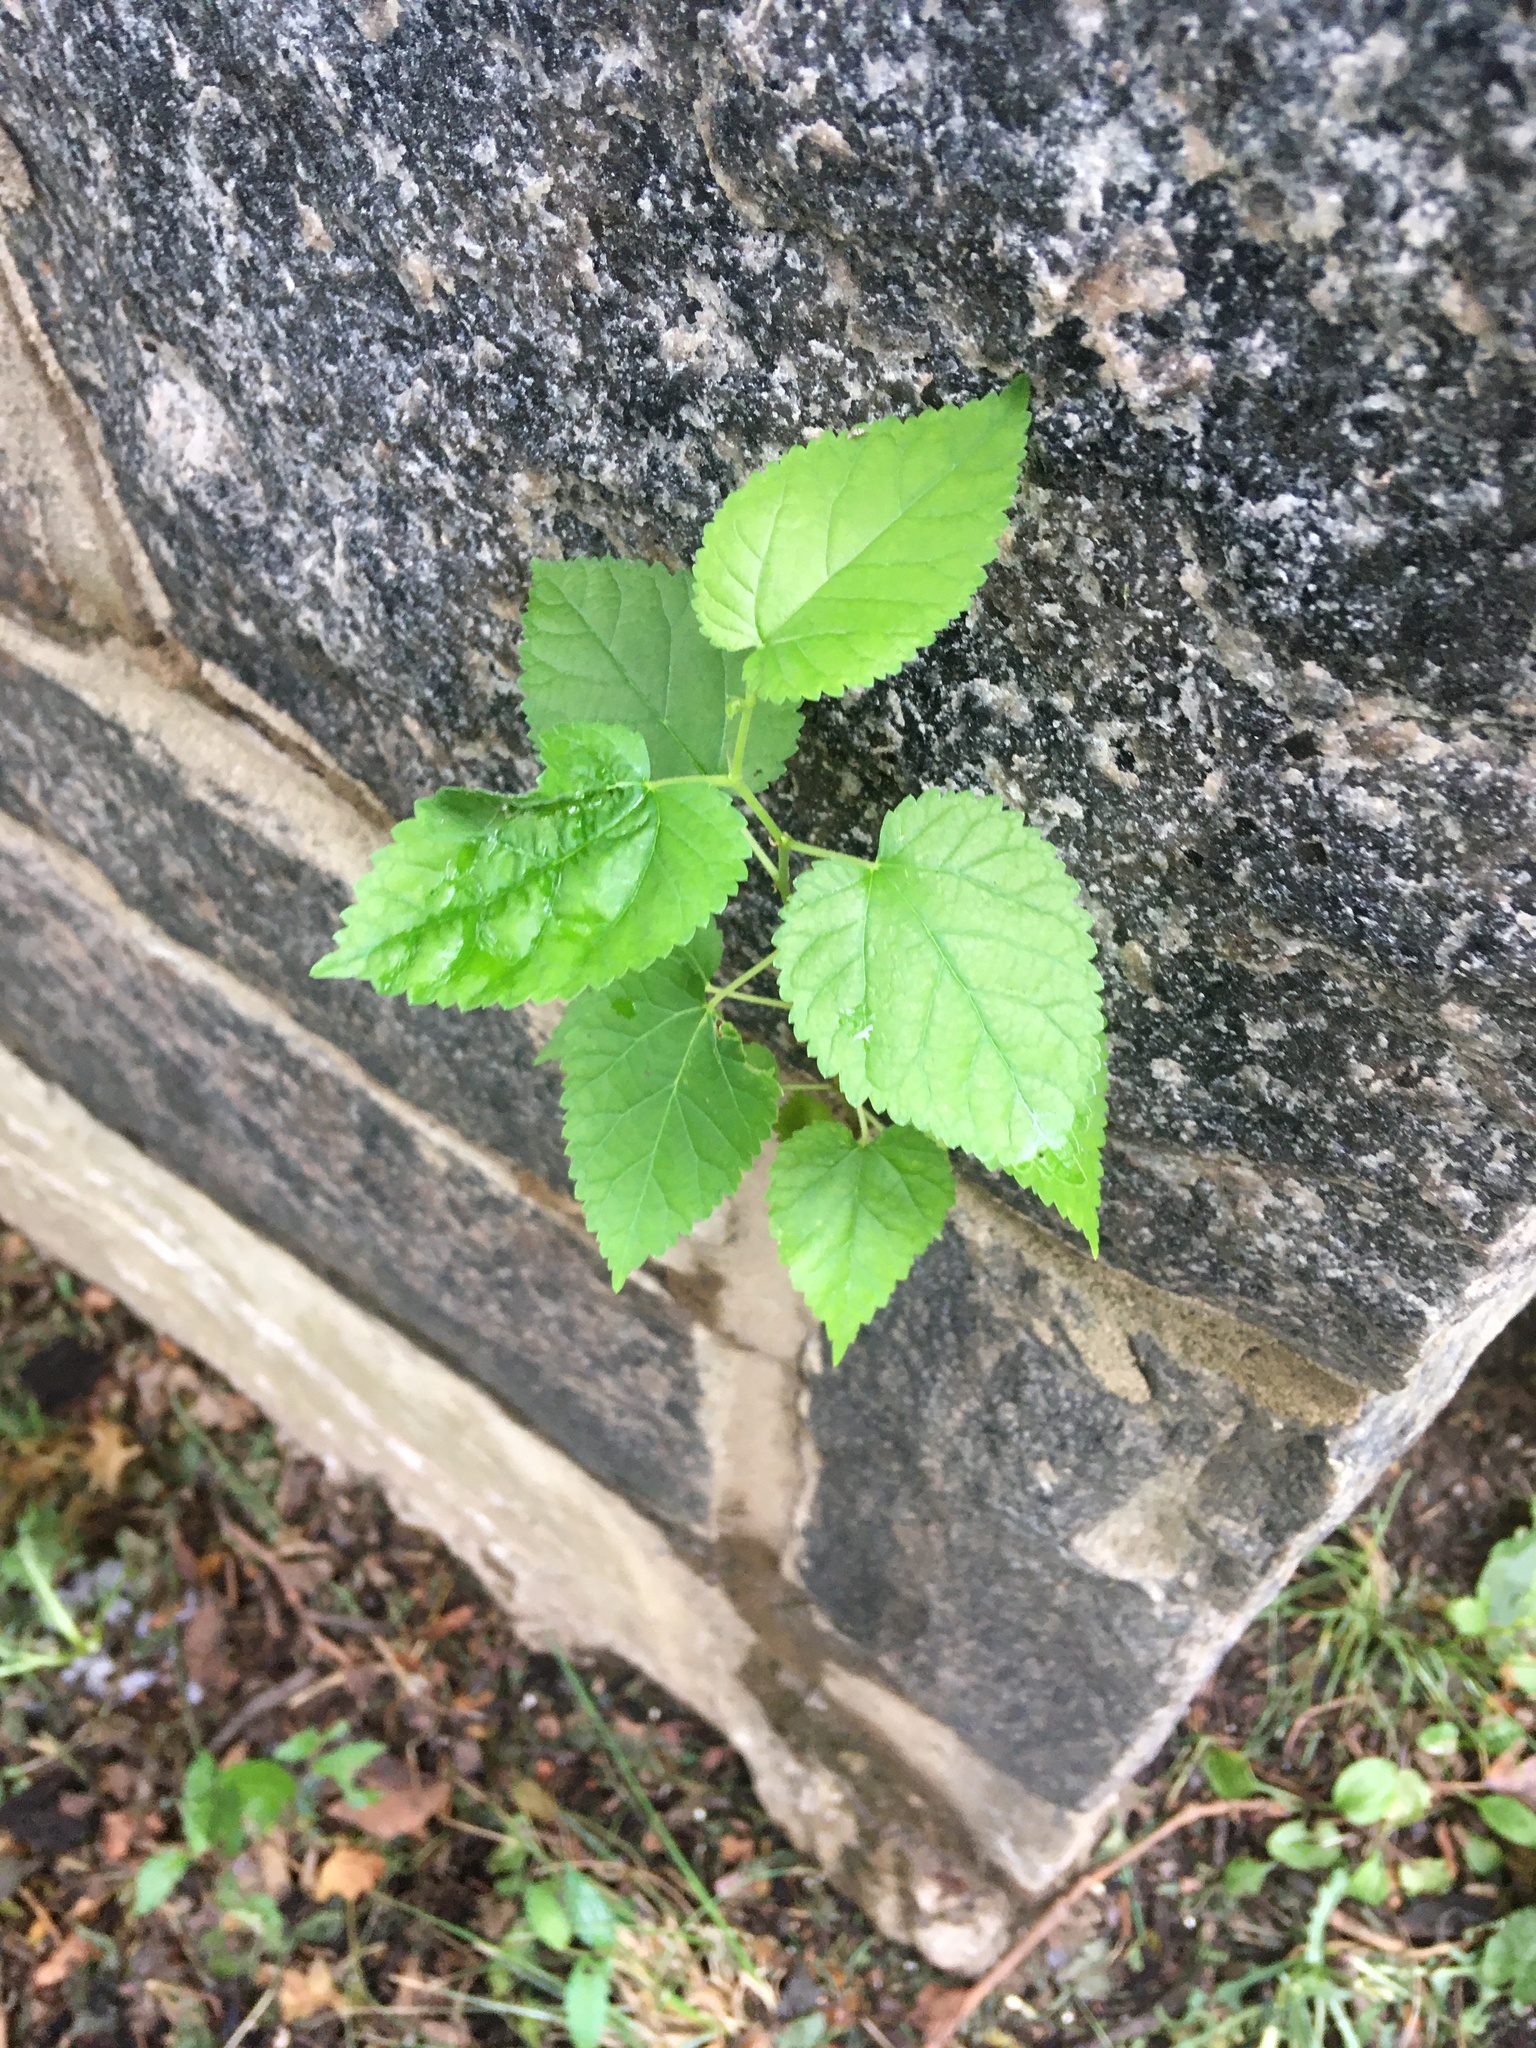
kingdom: Plantae
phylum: Tracheophyta
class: Magnoliopsida
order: Rosales
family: Moraceae
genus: Morus
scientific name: Morus alba
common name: White mulberry
